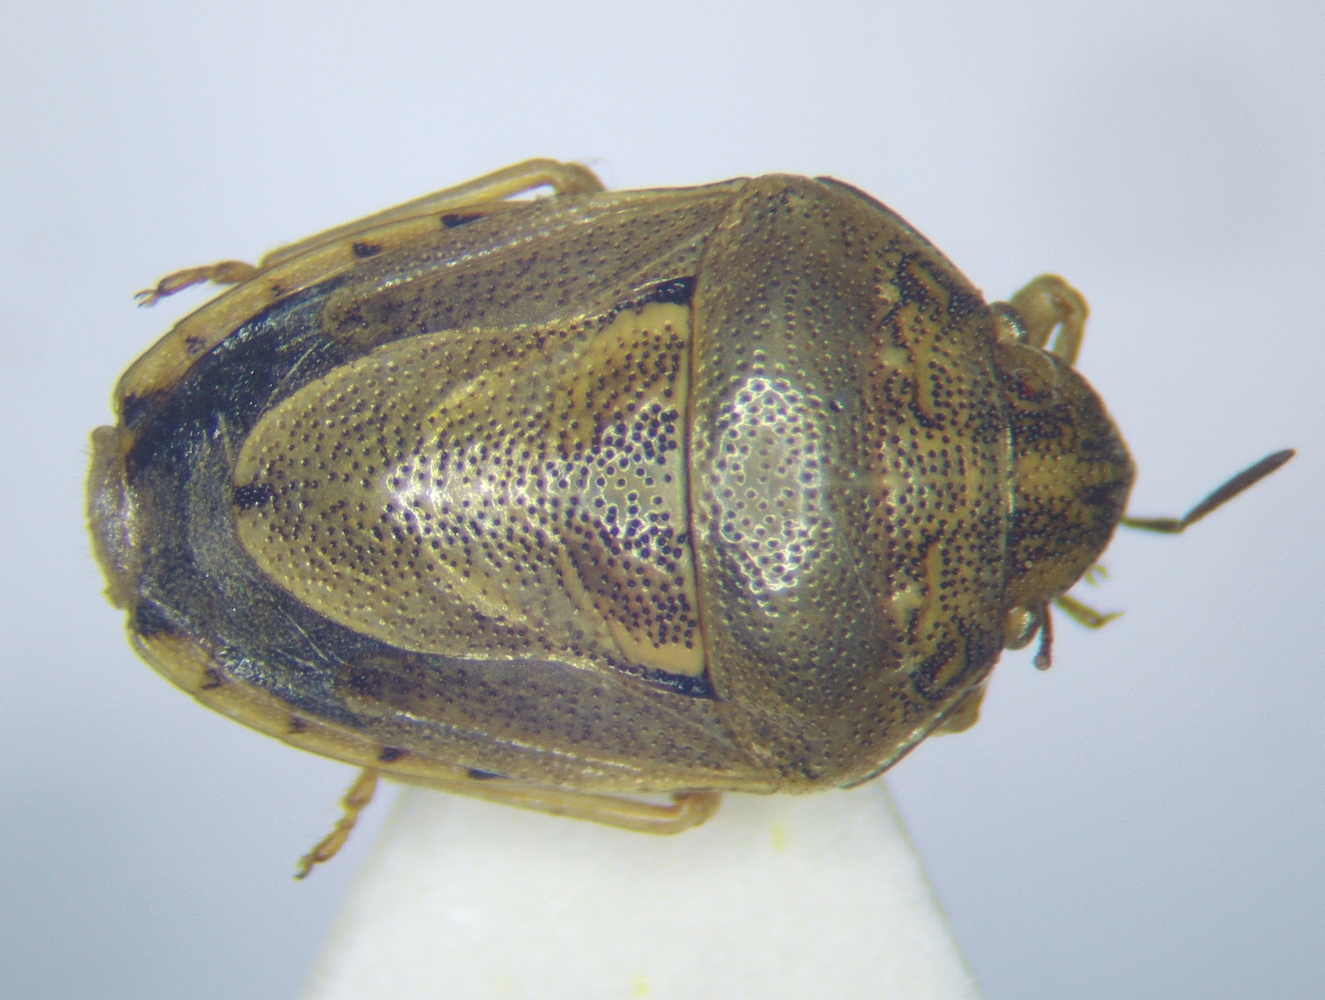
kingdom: Animalia
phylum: Arthropoda
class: Insecta
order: Hemiptera
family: Pentatomidae
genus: Neottiglossa
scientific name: Neottiglossa leporina
